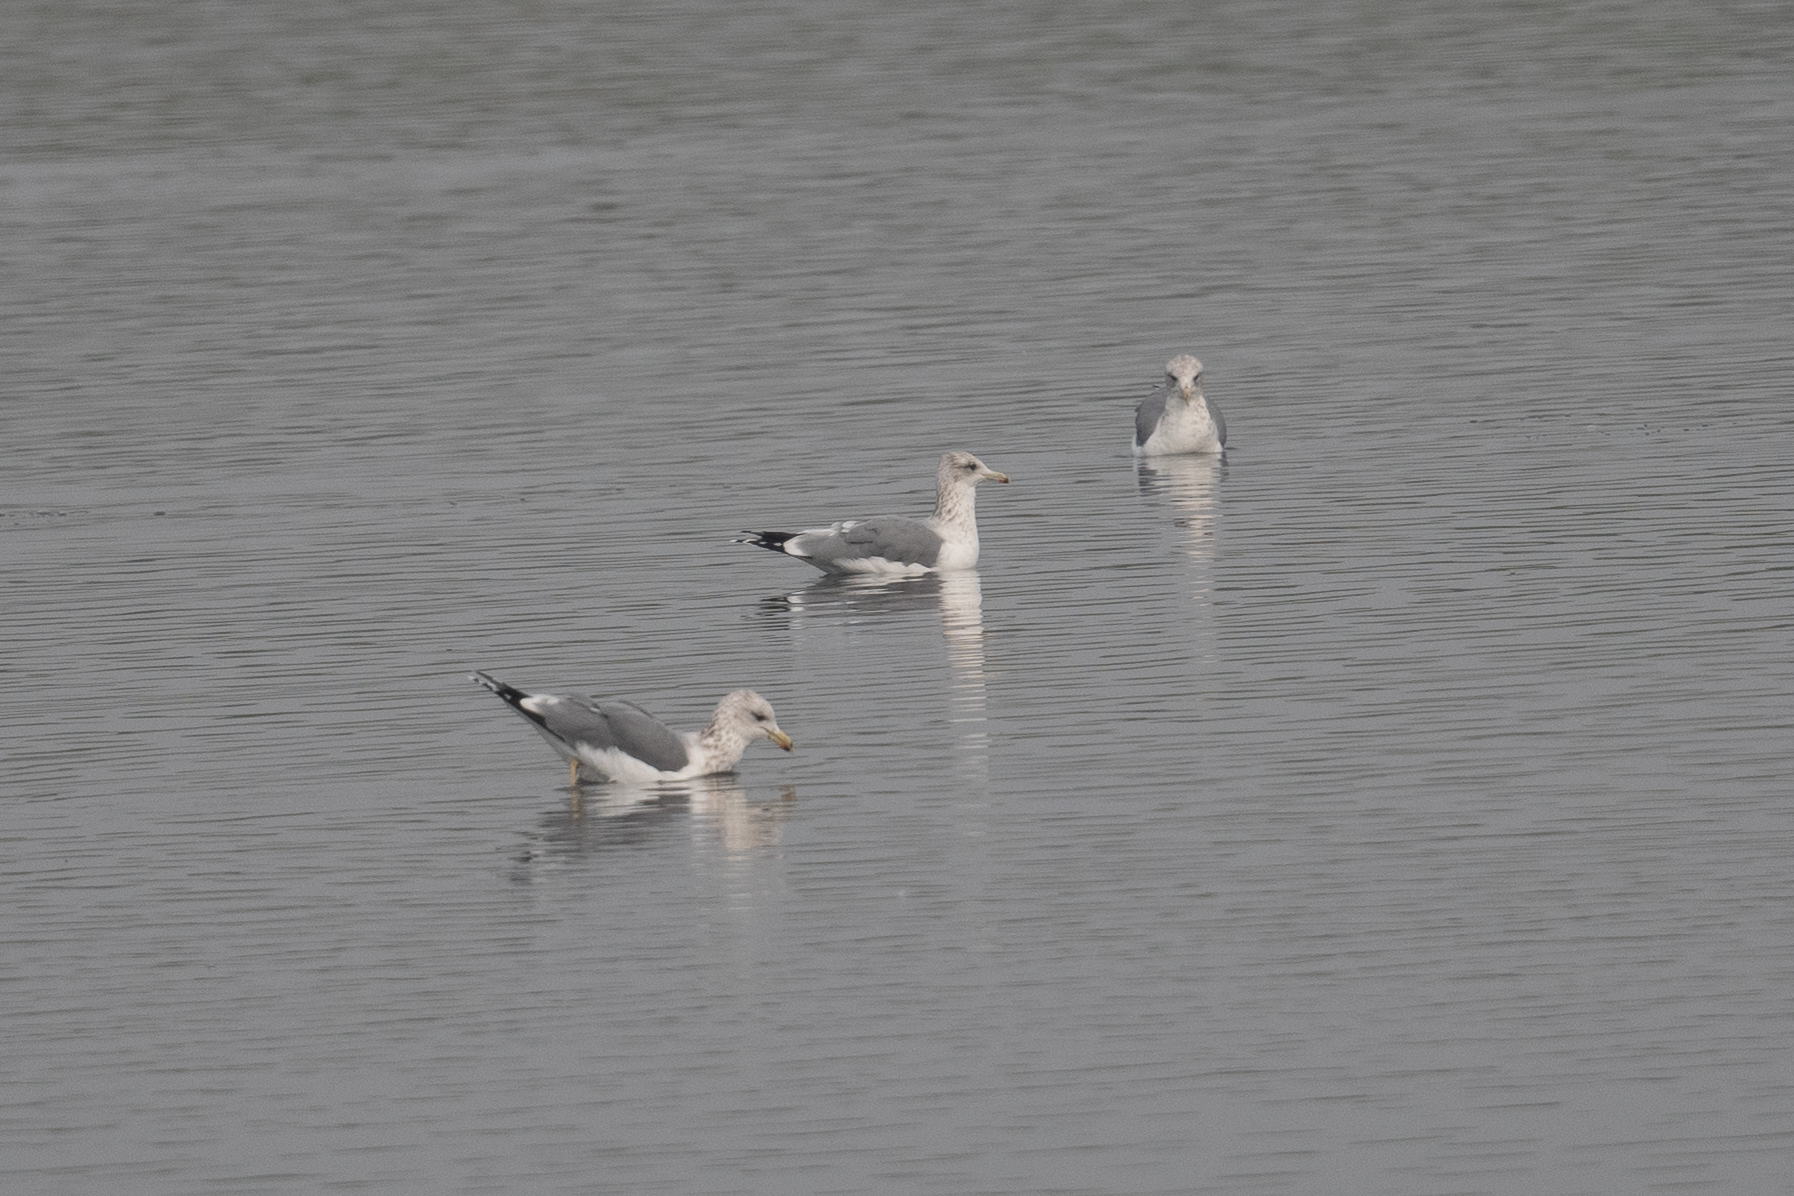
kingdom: Animalia
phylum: Chordata
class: Aves
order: Charadriiformes
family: Laridae
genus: Larus
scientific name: Larus californicus
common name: California gull
